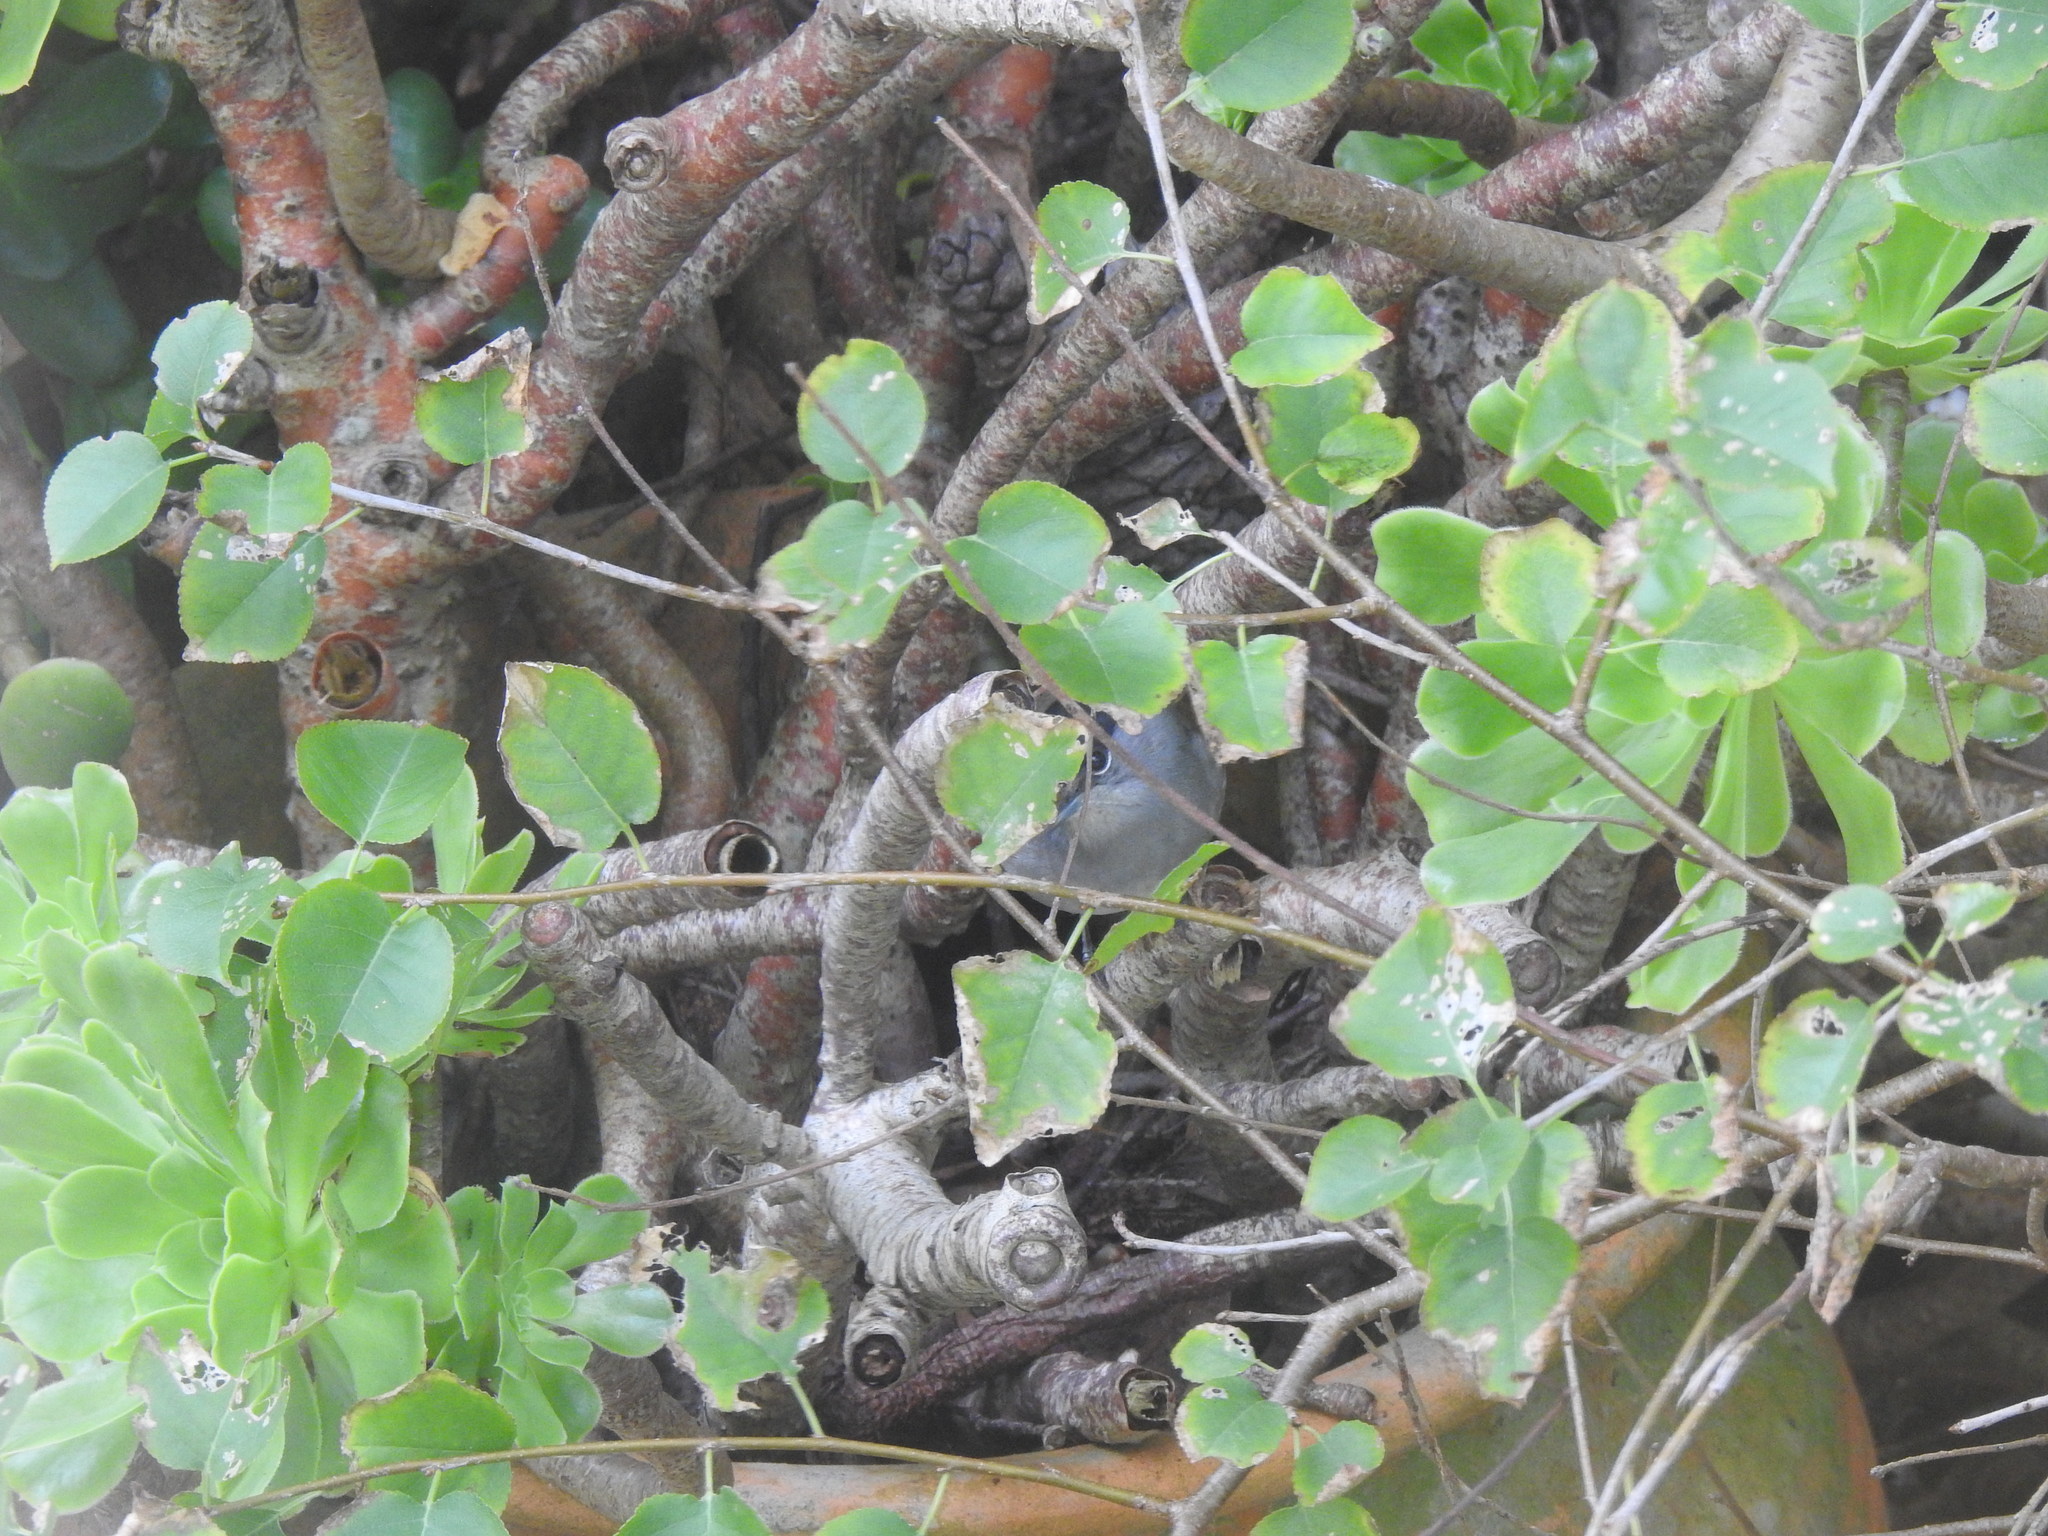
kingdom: Animalia
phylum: Chordata
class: Aves
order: Passeriformes
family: Sylviidae
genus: Sylvia
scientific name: Sylvia atricapilla
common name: Eurasian blackcap
